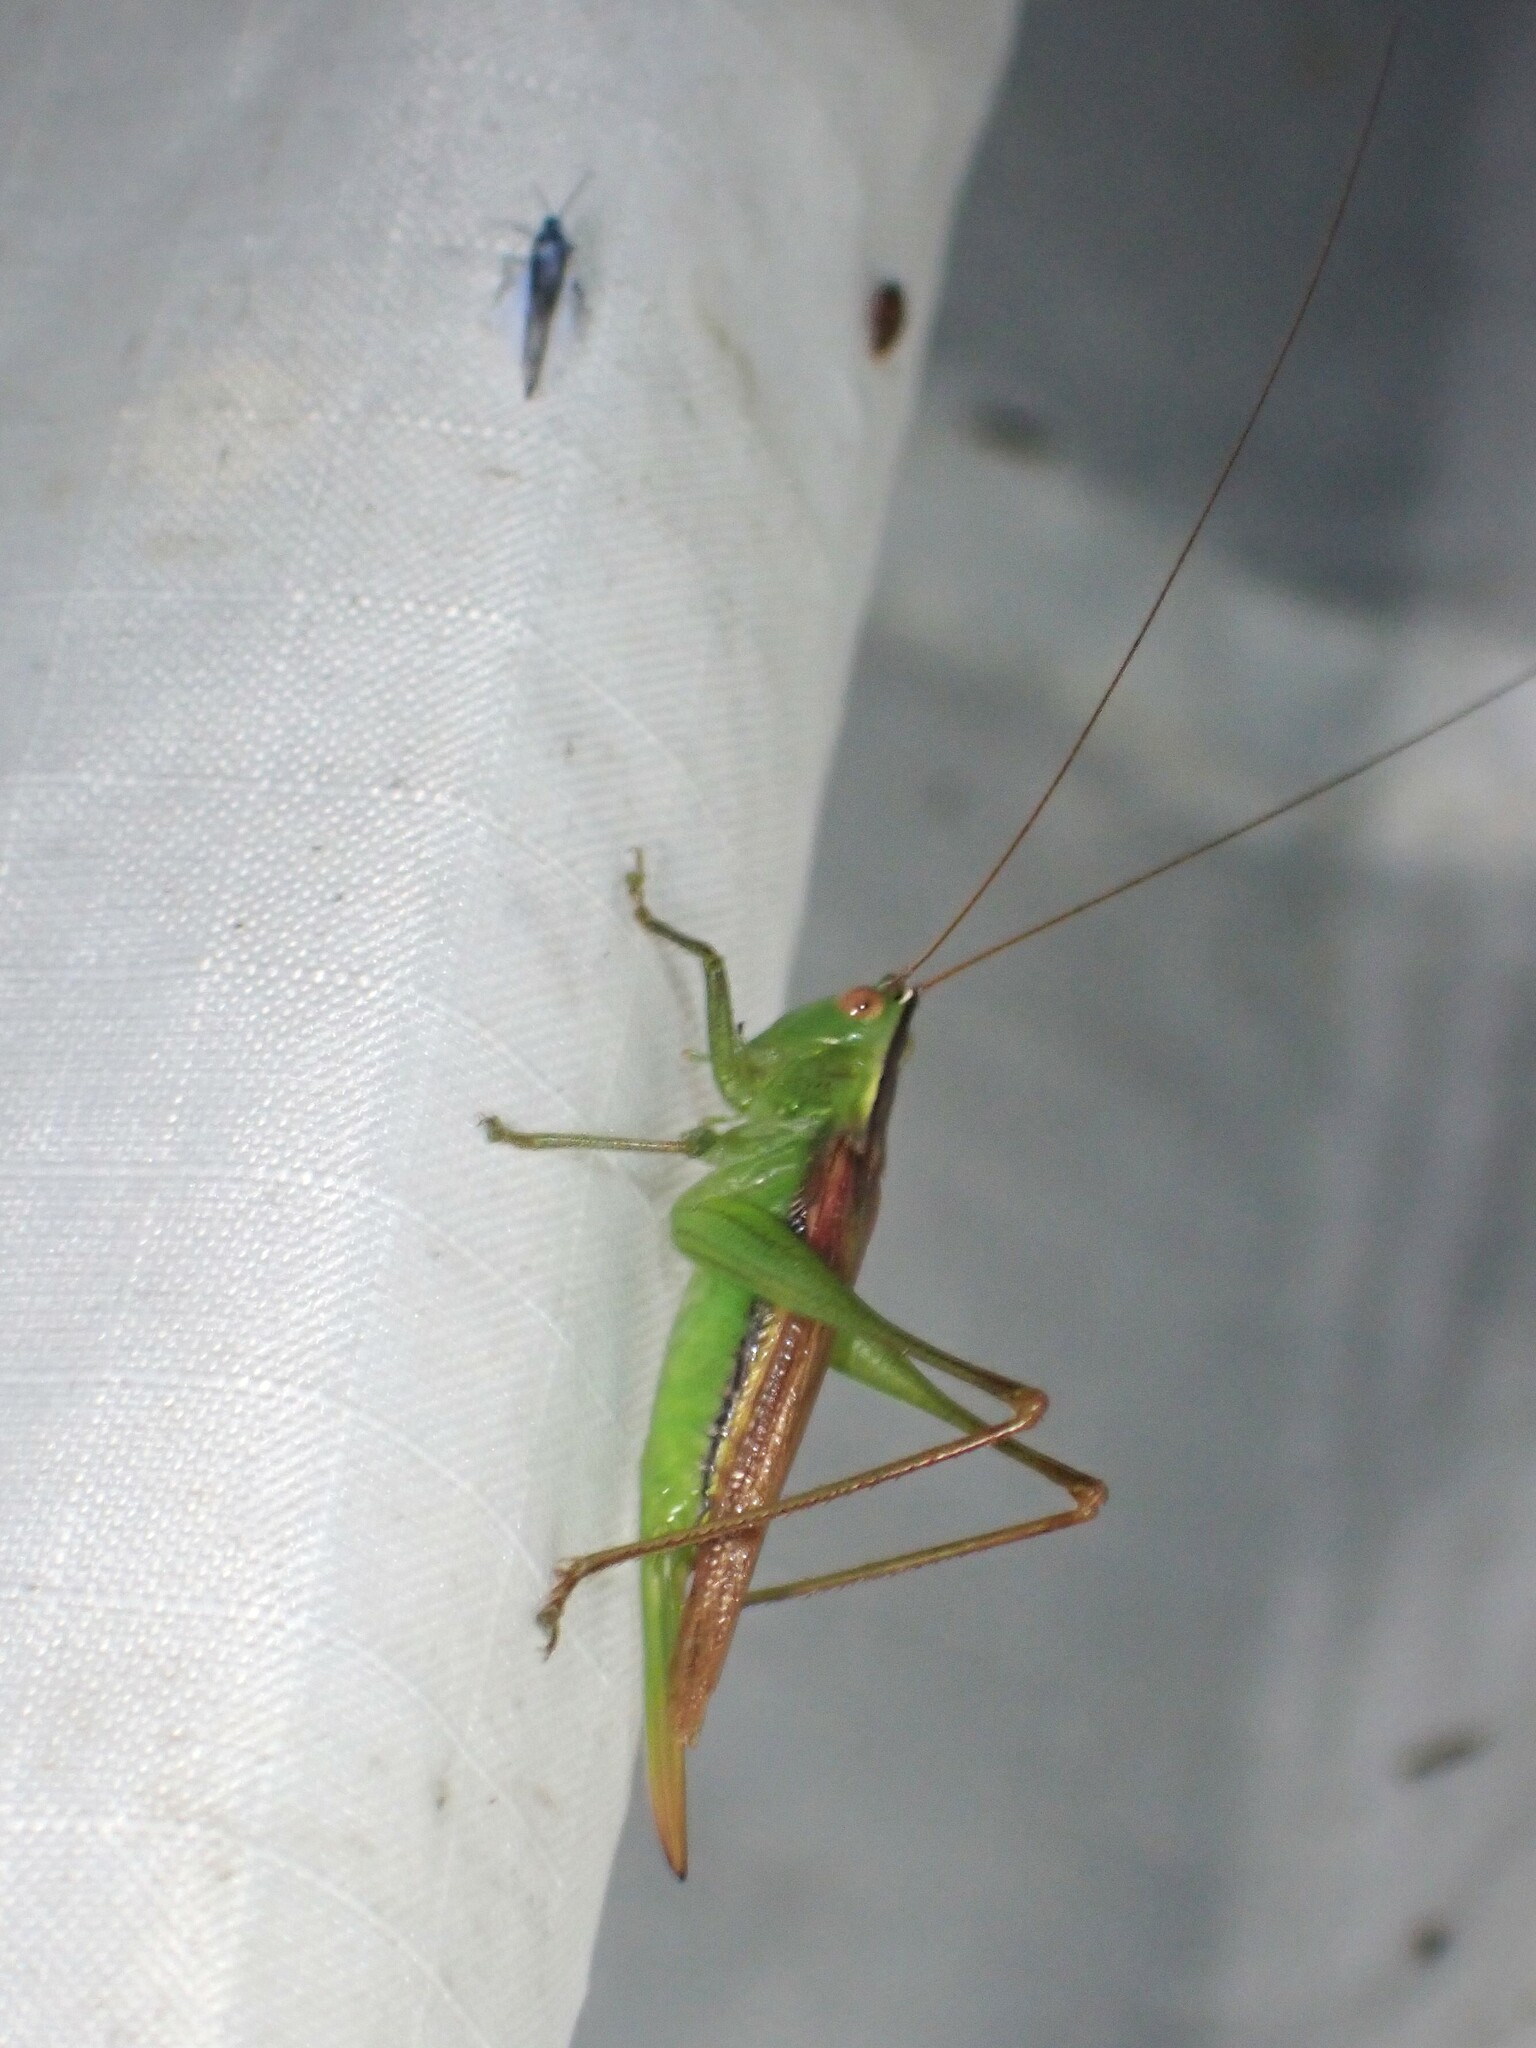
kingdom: Animalia
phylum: Arthropoda
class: Insecta
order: Orthoptera
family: Tettigoniidae
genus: Conocephalus
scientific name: Conocephalus fasciatus
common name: Slender meadow katydid
